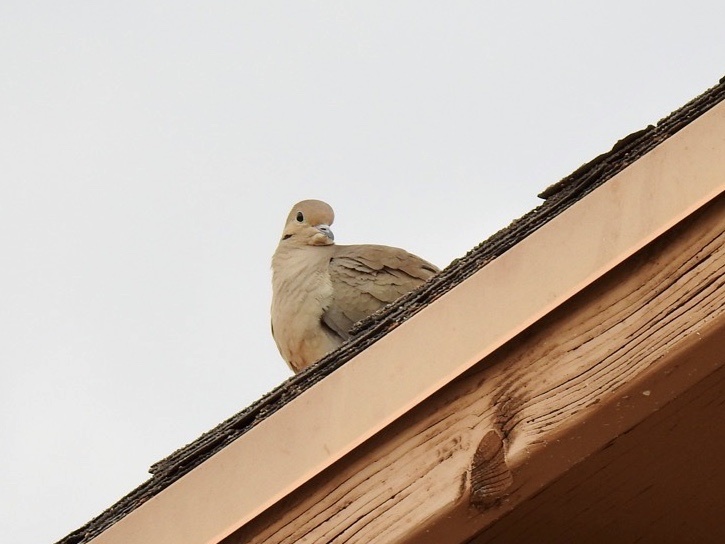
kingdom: Animalia
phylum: Chordata
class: Aves
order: Columbiformes
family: Columbidae
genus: Zenaida
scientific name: Zenaida macroura
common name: Mourning dove
